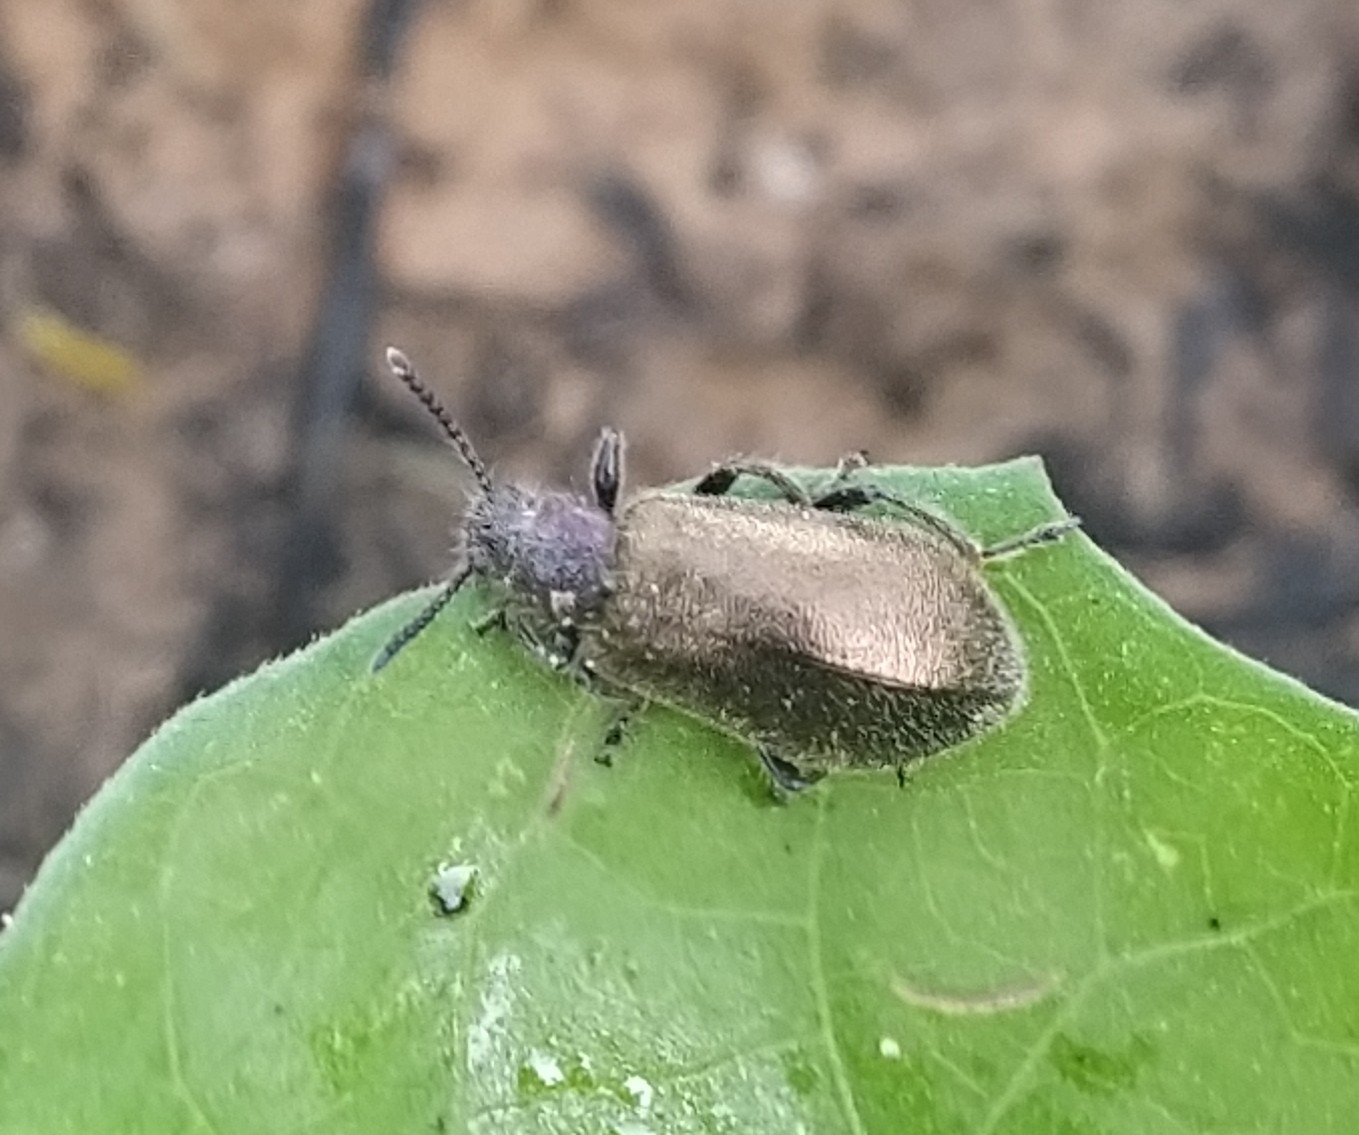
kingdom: Animalia
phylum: Arthropoda
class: Insecta
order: Coleoptera
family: Tenebrionidae
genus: Lagria
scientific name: Lagria villosa
